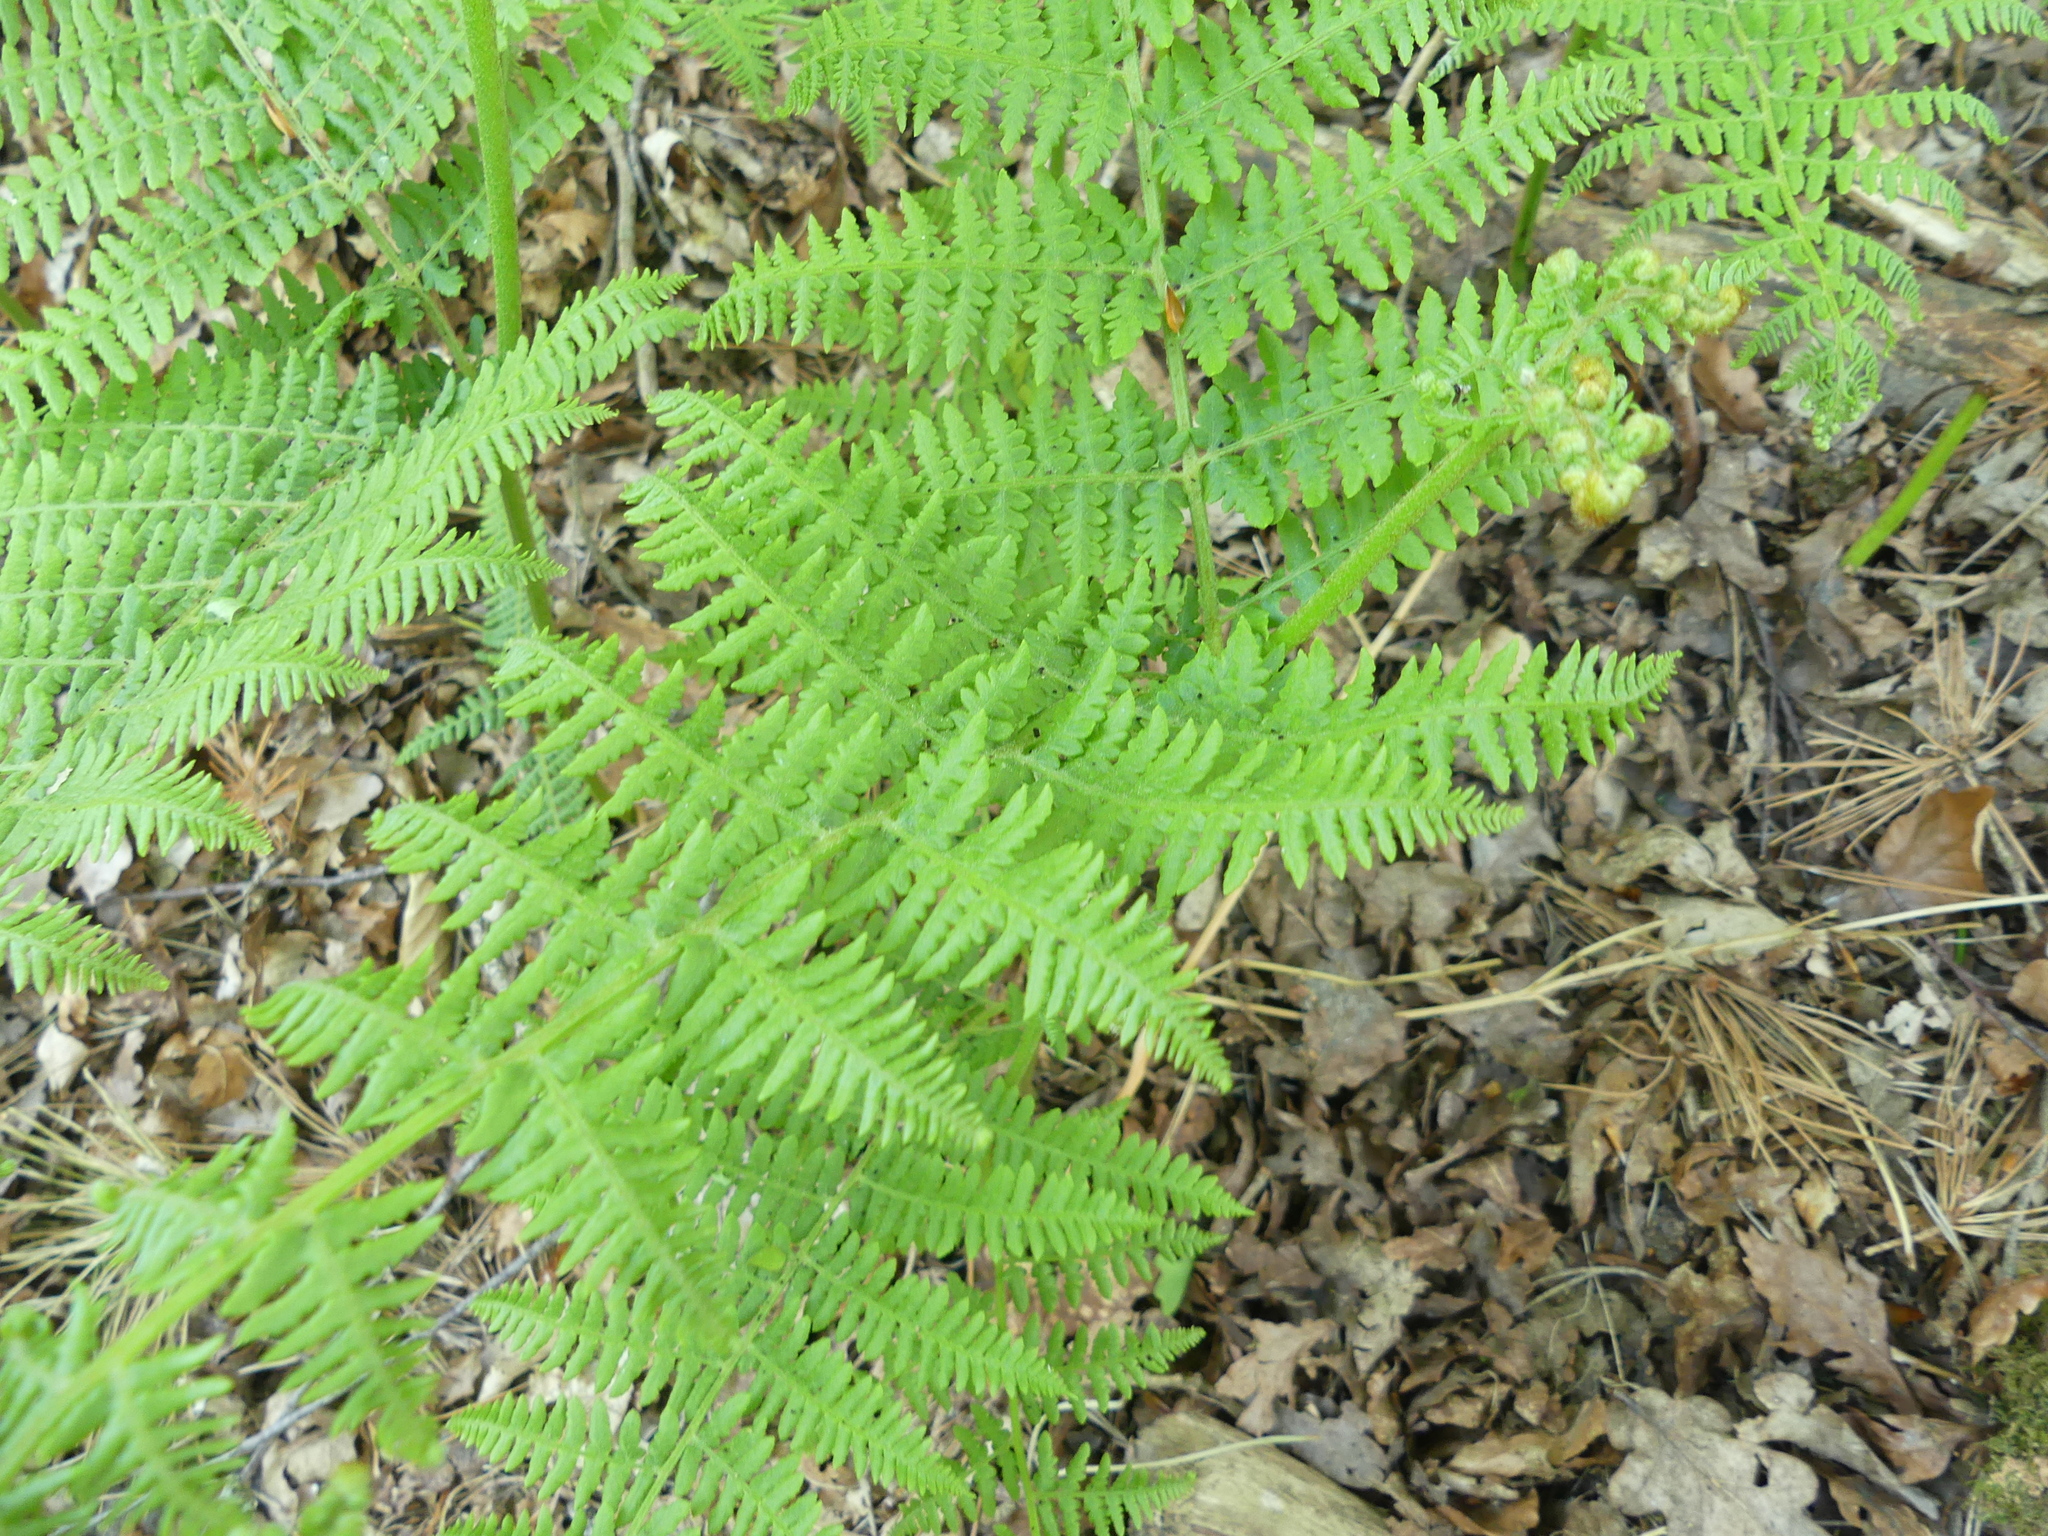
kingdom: Plantae
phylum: Tracheophyta
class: Polypodiopsida
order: Polypodiales
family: Dennstaedtiaceae
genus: Pteridium
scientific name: Pteridium aquilinum
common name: Bracken
